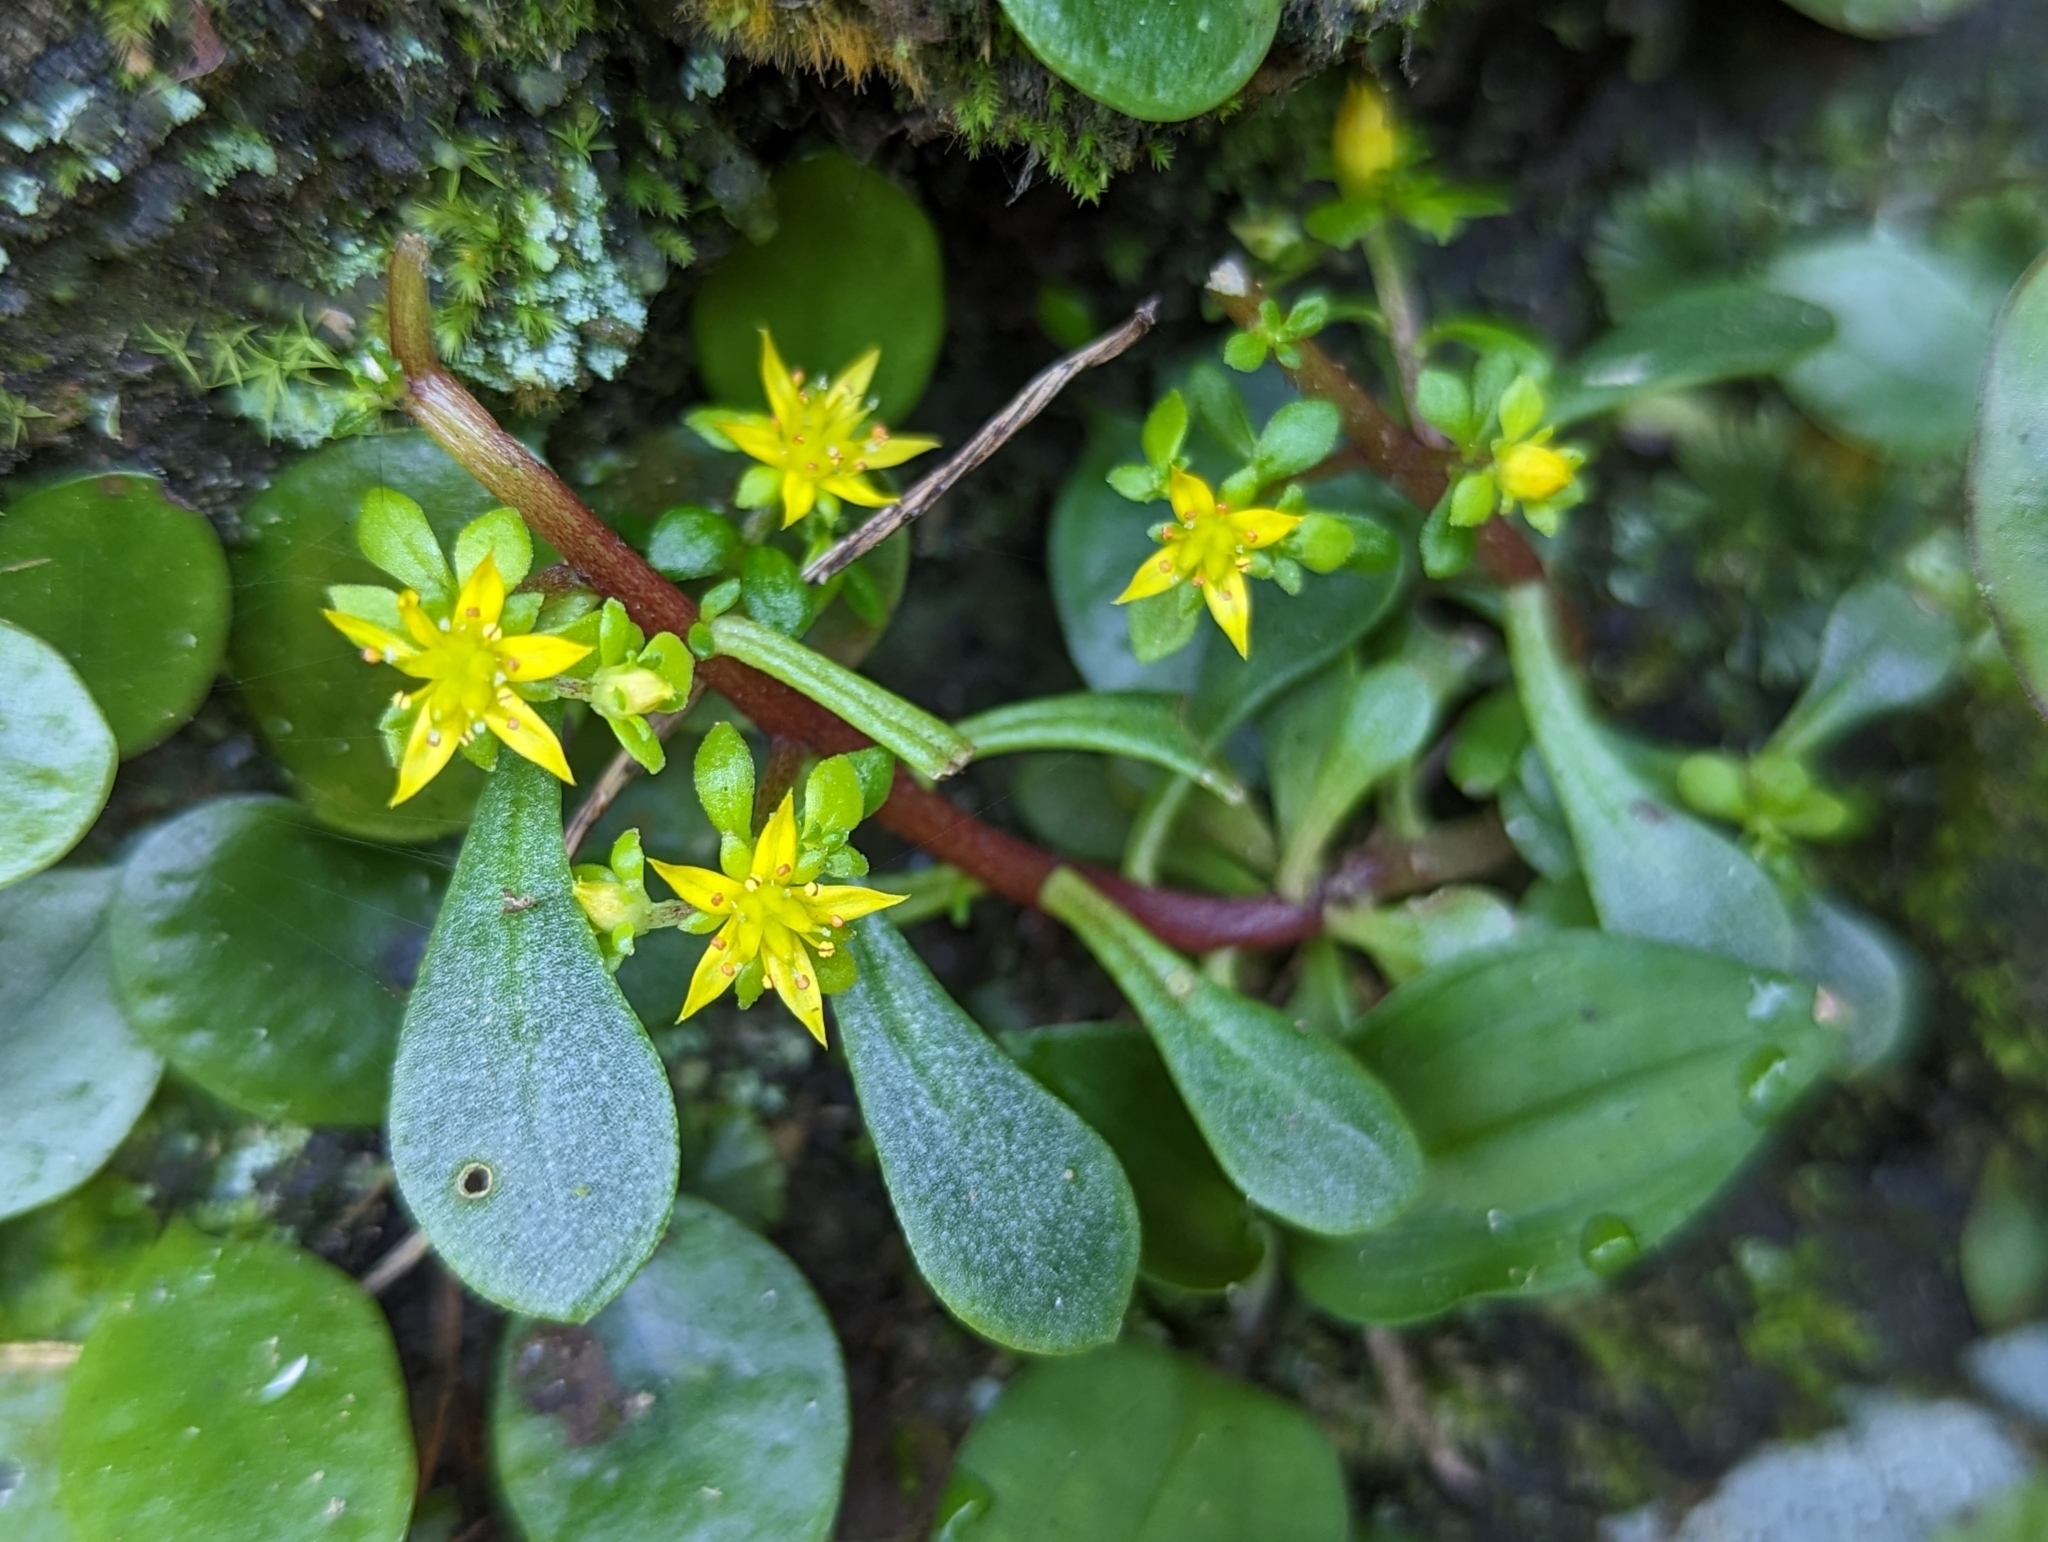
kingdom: Plantae
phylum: Tracheophyta
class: Magnoliopsida
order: Saxifragales
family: Crassulaceae
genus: Sedum
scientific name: Sedum actinocarpum
